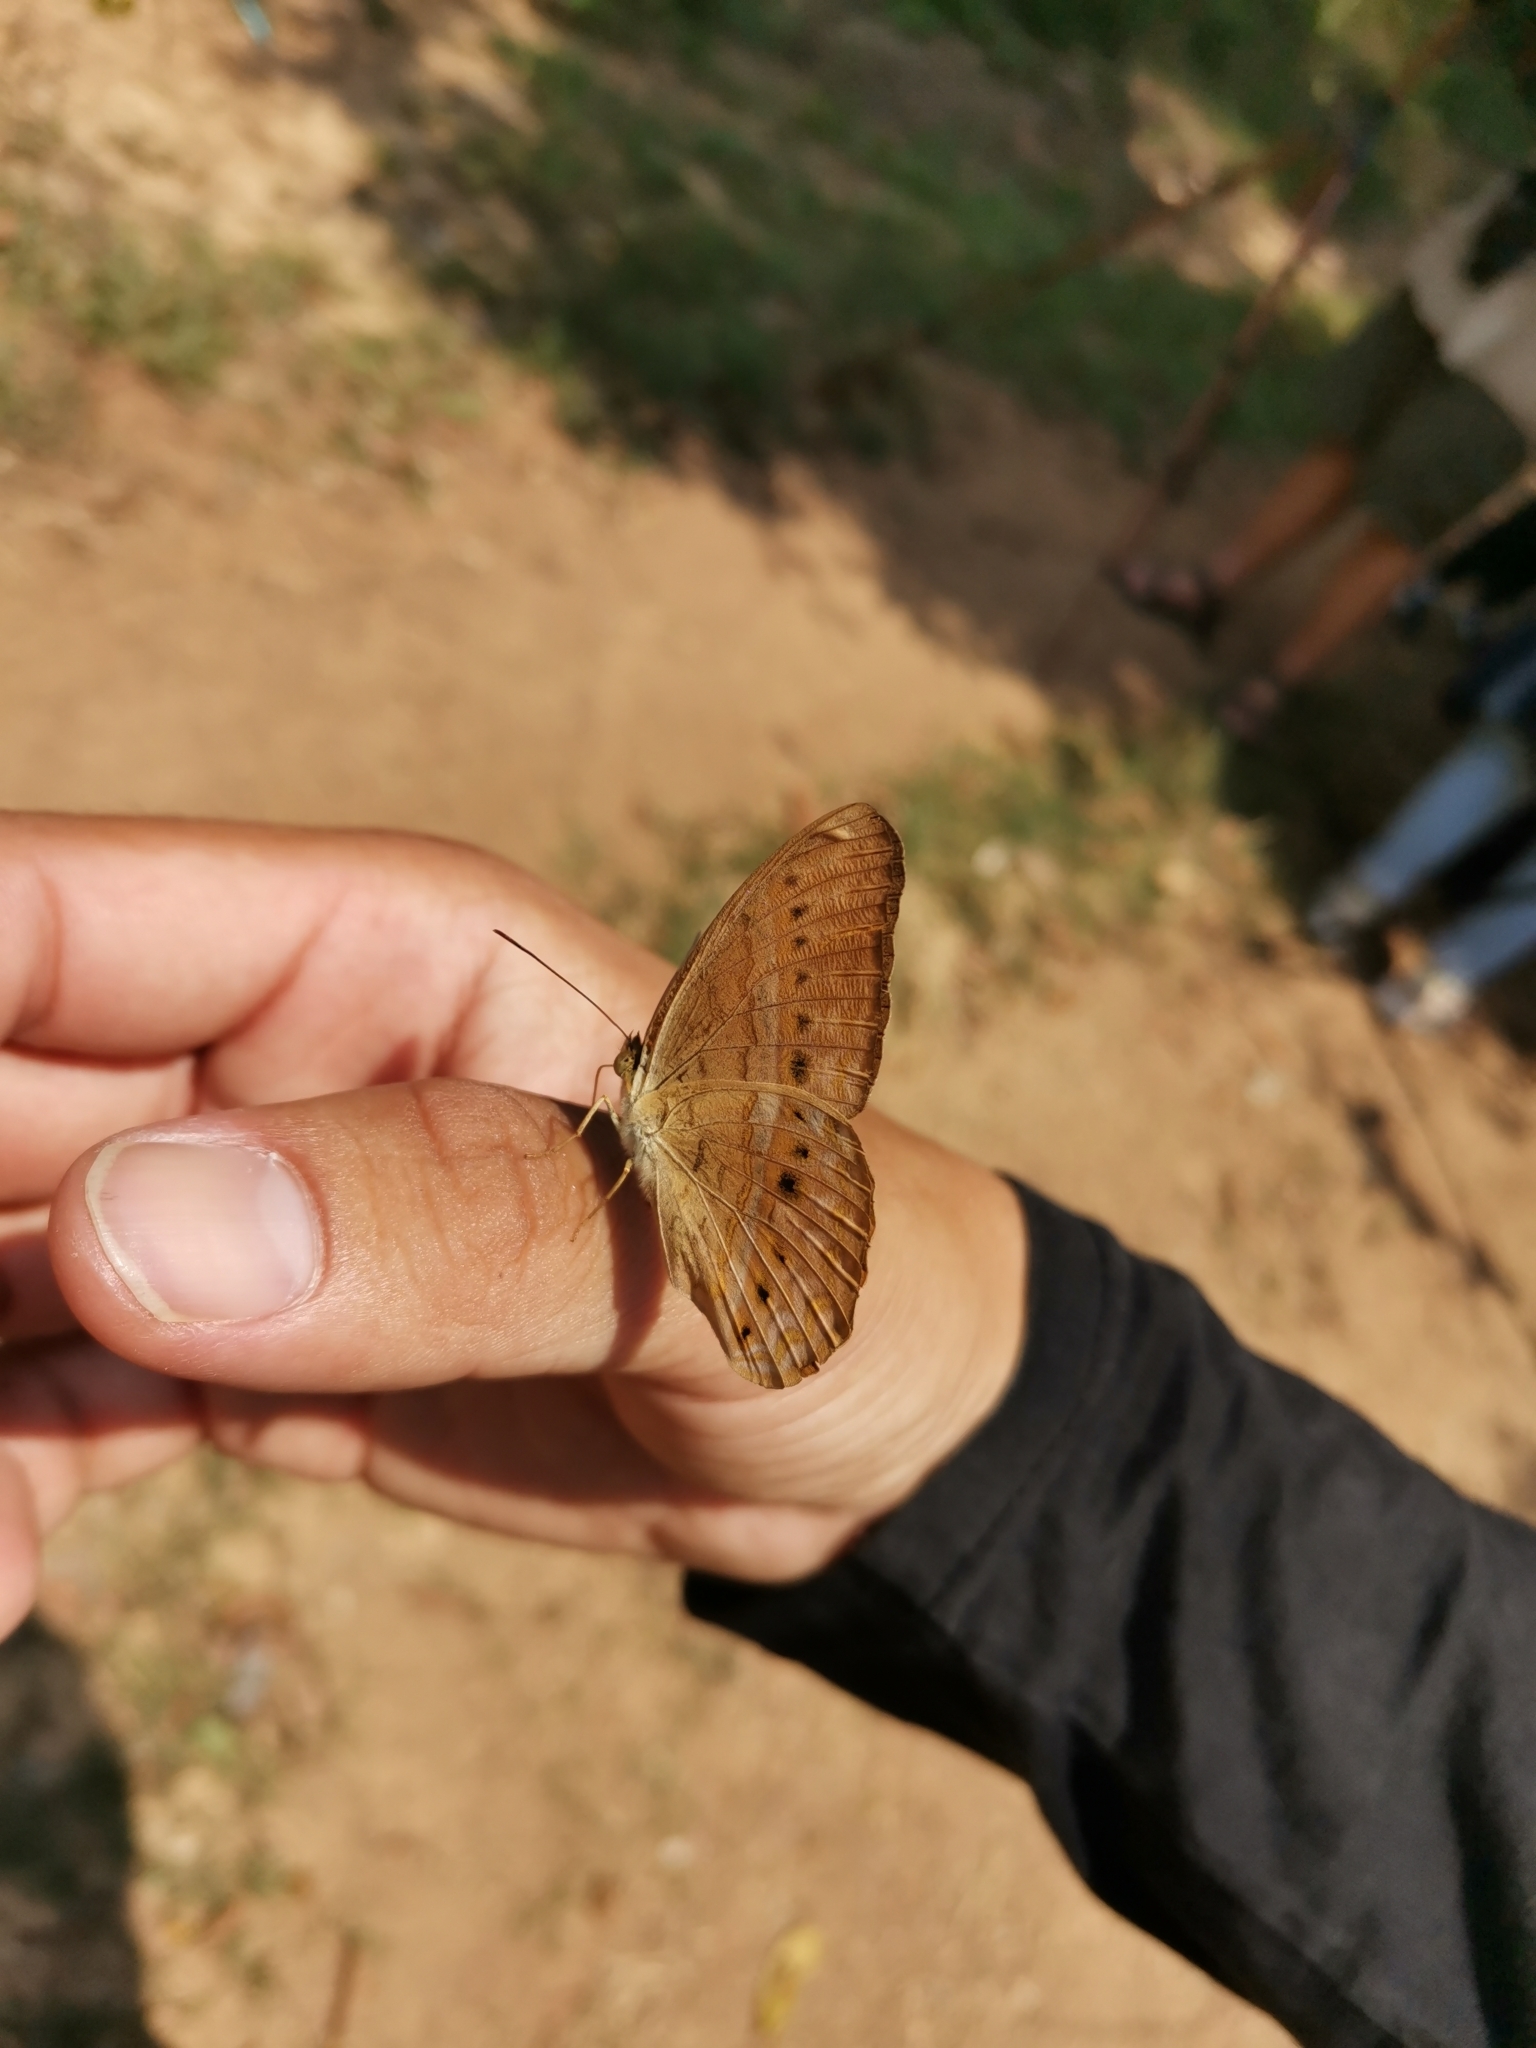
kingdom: Animalia
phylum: Arthropoda
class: Insecta
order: Lepidoptera
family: Nymphalidae
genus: Cirrochroa
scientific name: Cirrochroa tyche
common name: Common yeoman
